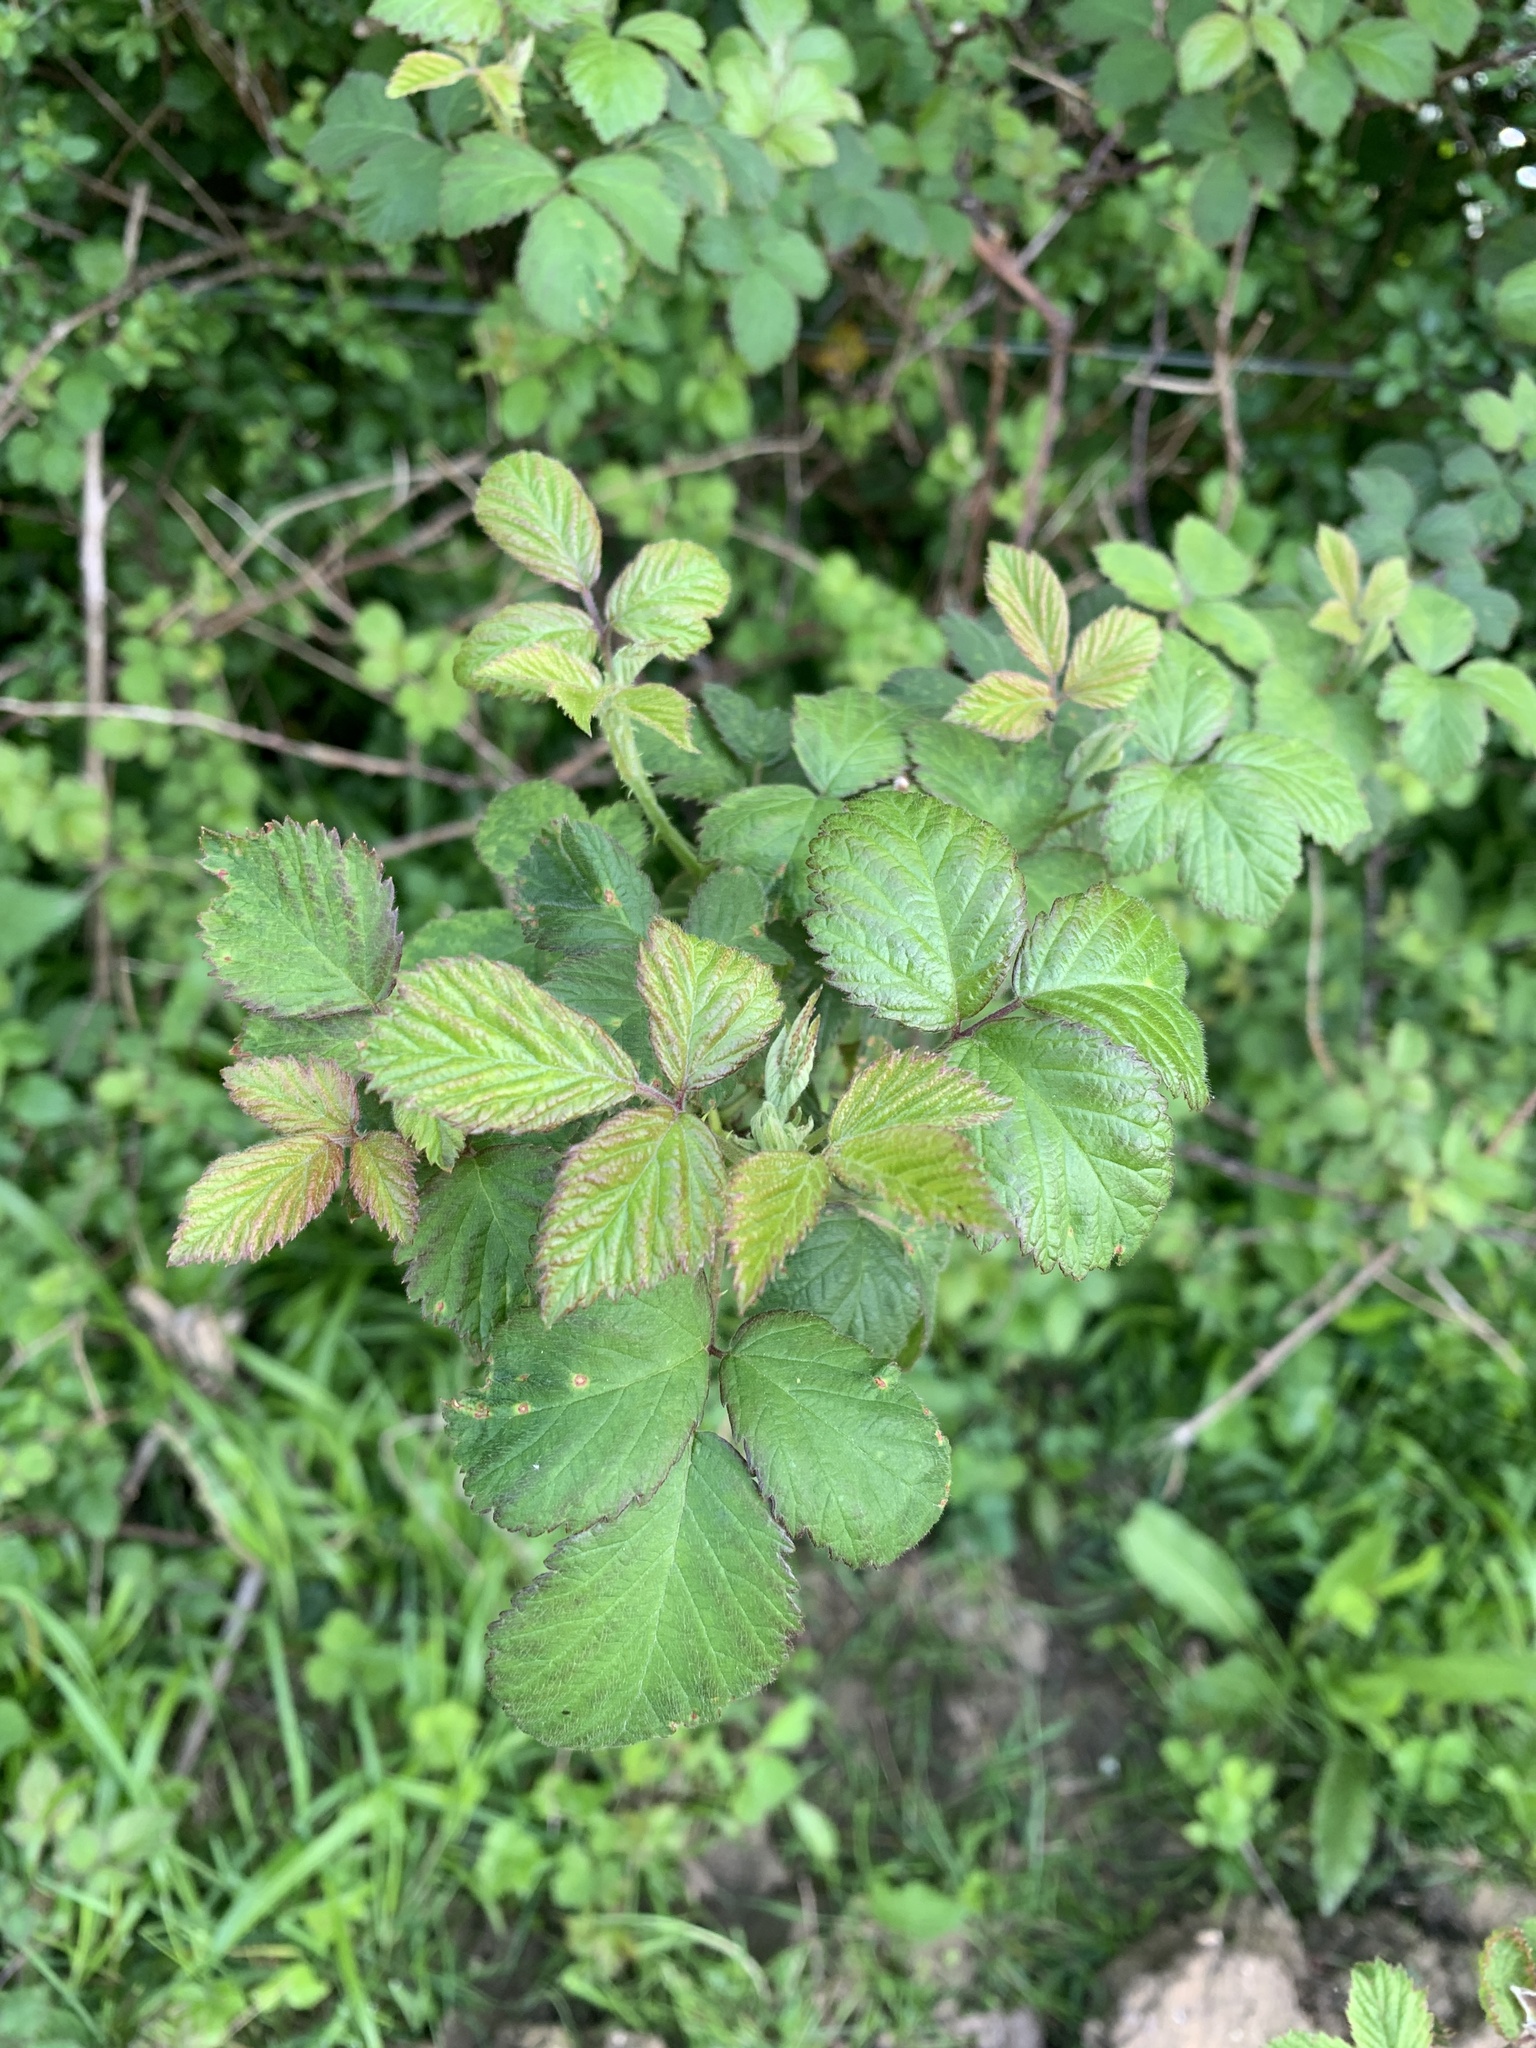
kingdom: Plantae
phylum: Tracheophyta
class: Magnoliopsida
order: Rosales
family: Rosaceae
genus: Rubus
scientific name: Rubus fruticosus
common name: Blackberry, bramble
